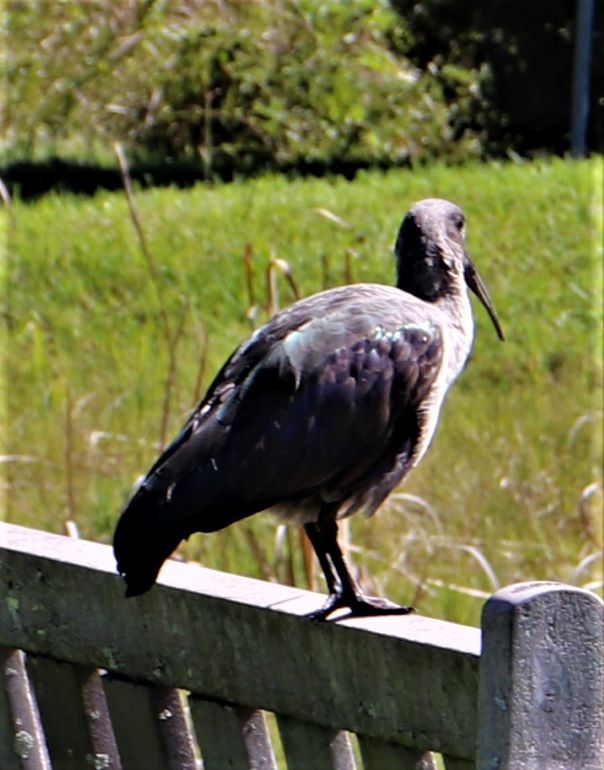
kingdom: Animalia
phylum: Chordata
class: Aves
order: Pelecaniformes
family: Threskiornithidae
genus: Bostrychia
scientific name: Bostrychia hagedash
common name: Hadada ibis
